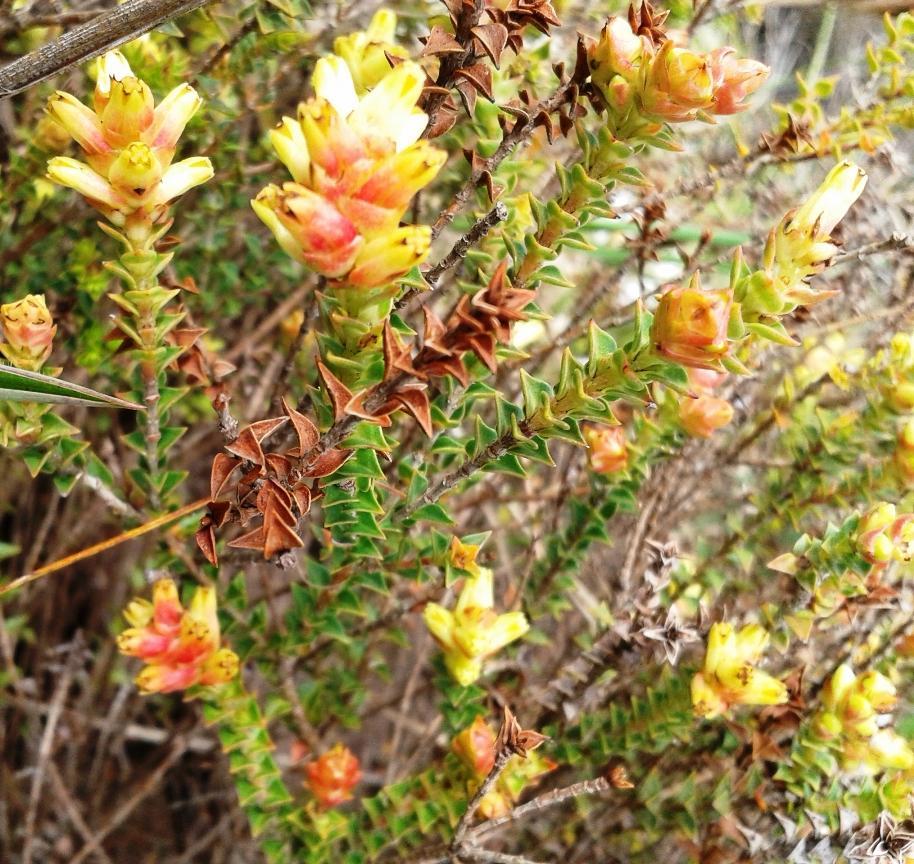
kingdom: Plantae
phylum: Tracheophyta
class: Magnoliopsida
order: Myrtales
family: Penaeaceae
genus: Penaea
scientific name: Penaea mucronata
